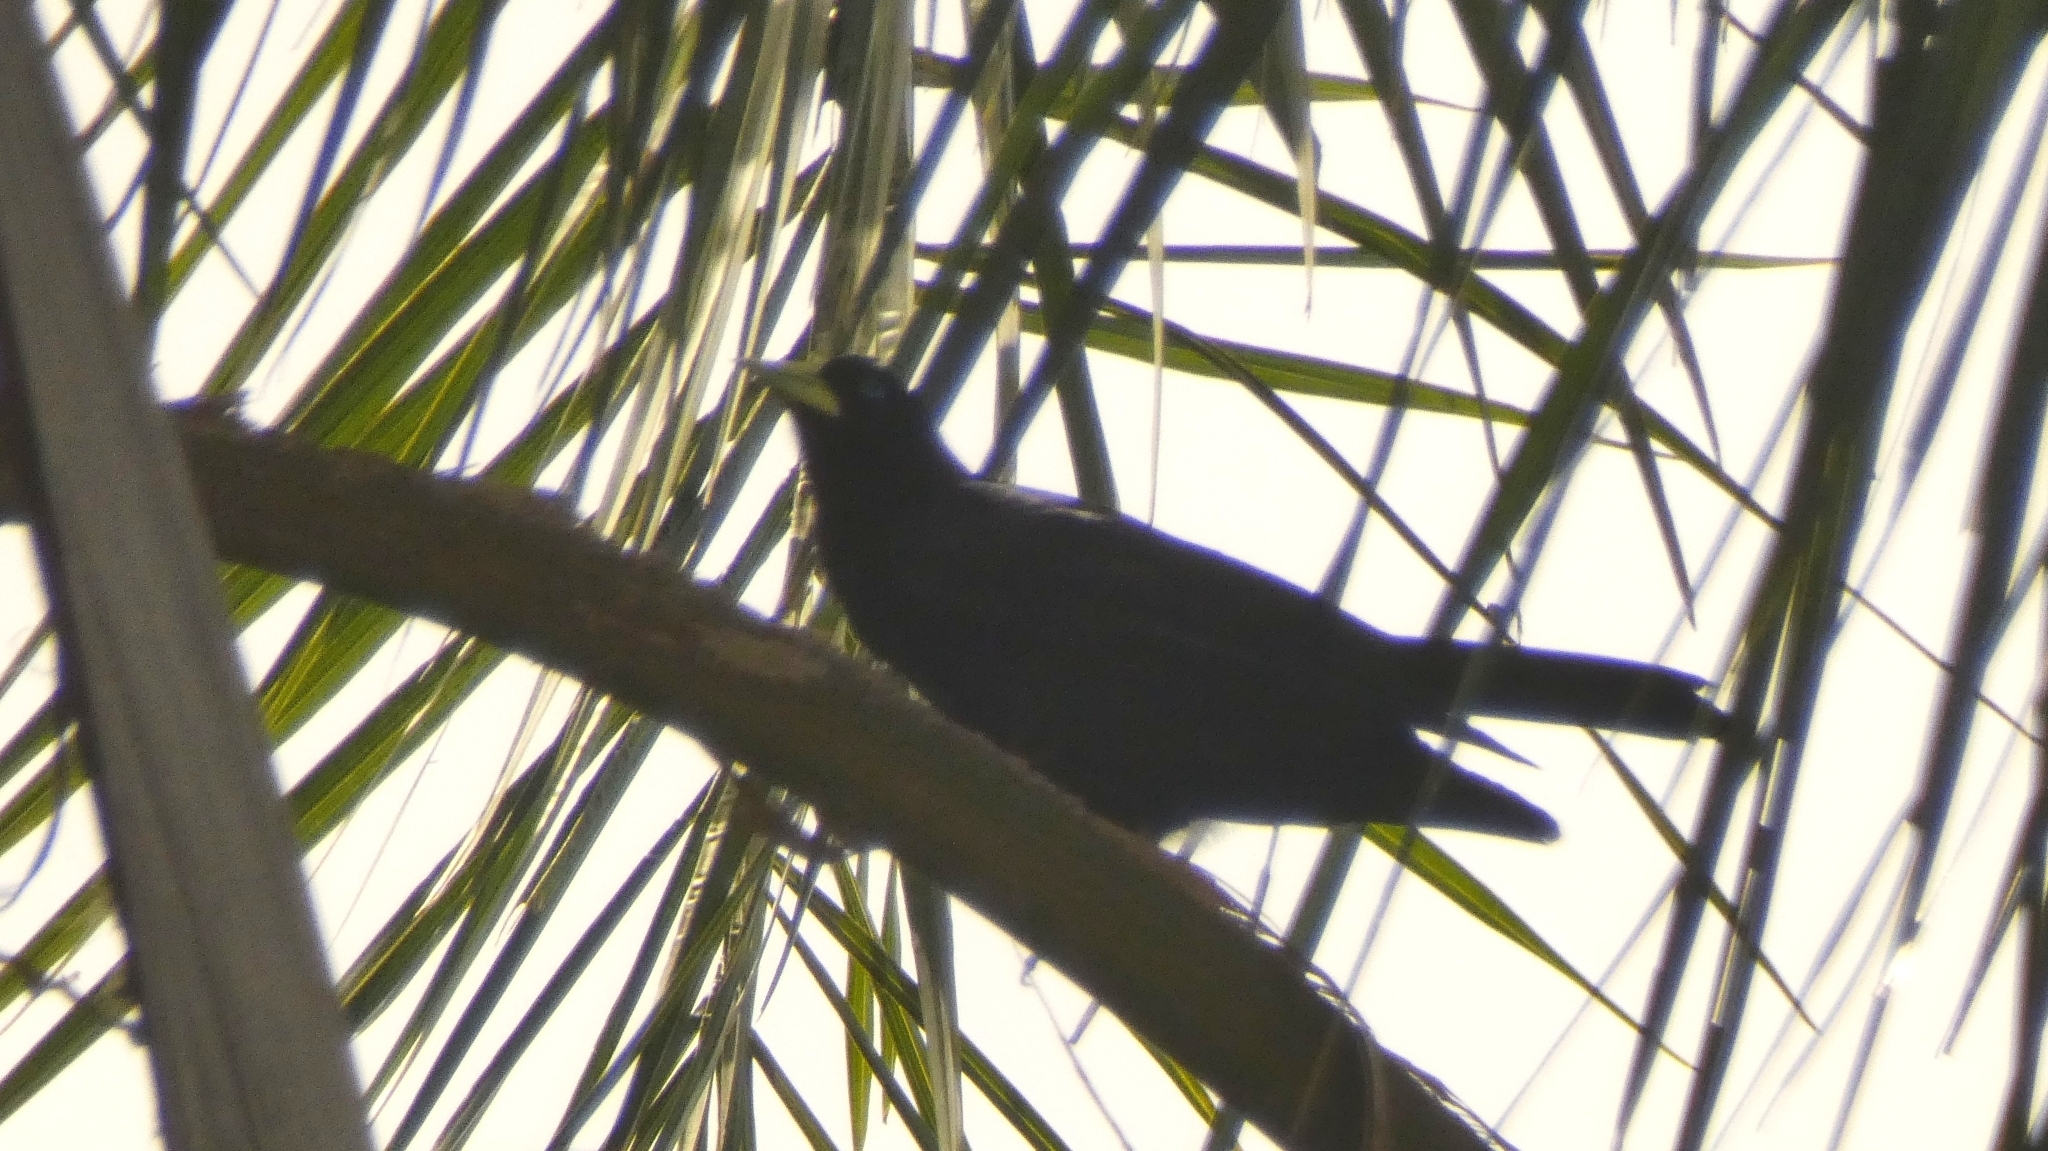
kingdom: Animalia
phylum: Chordata
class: Aves
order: Passeriformes
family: Icteridae
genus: Cacicus
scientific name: Cacicus haemorrhous
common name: Red-rumped cacique
